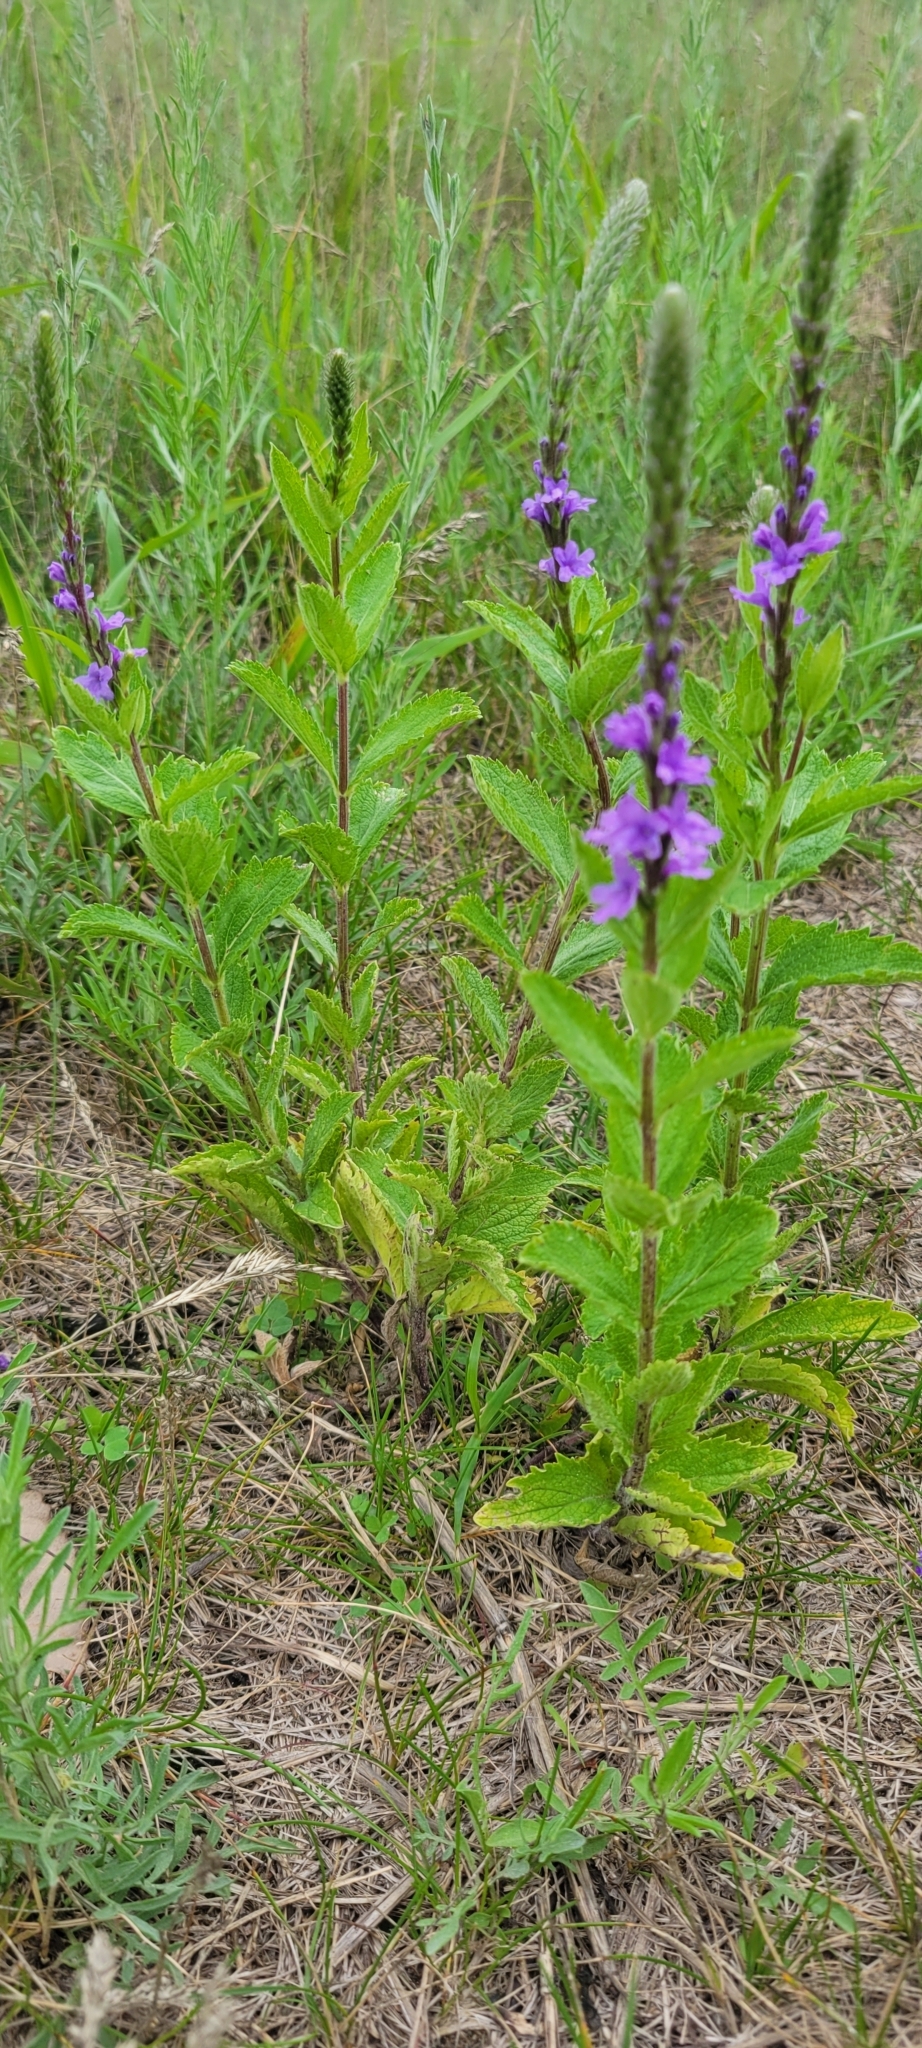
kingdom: Plantae
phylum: Tracheophyta
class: Magnoliopsida
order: Lamiales
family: Verbenaceae
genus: Verbena
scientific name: Verbena stricta
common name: Hoary vervain
